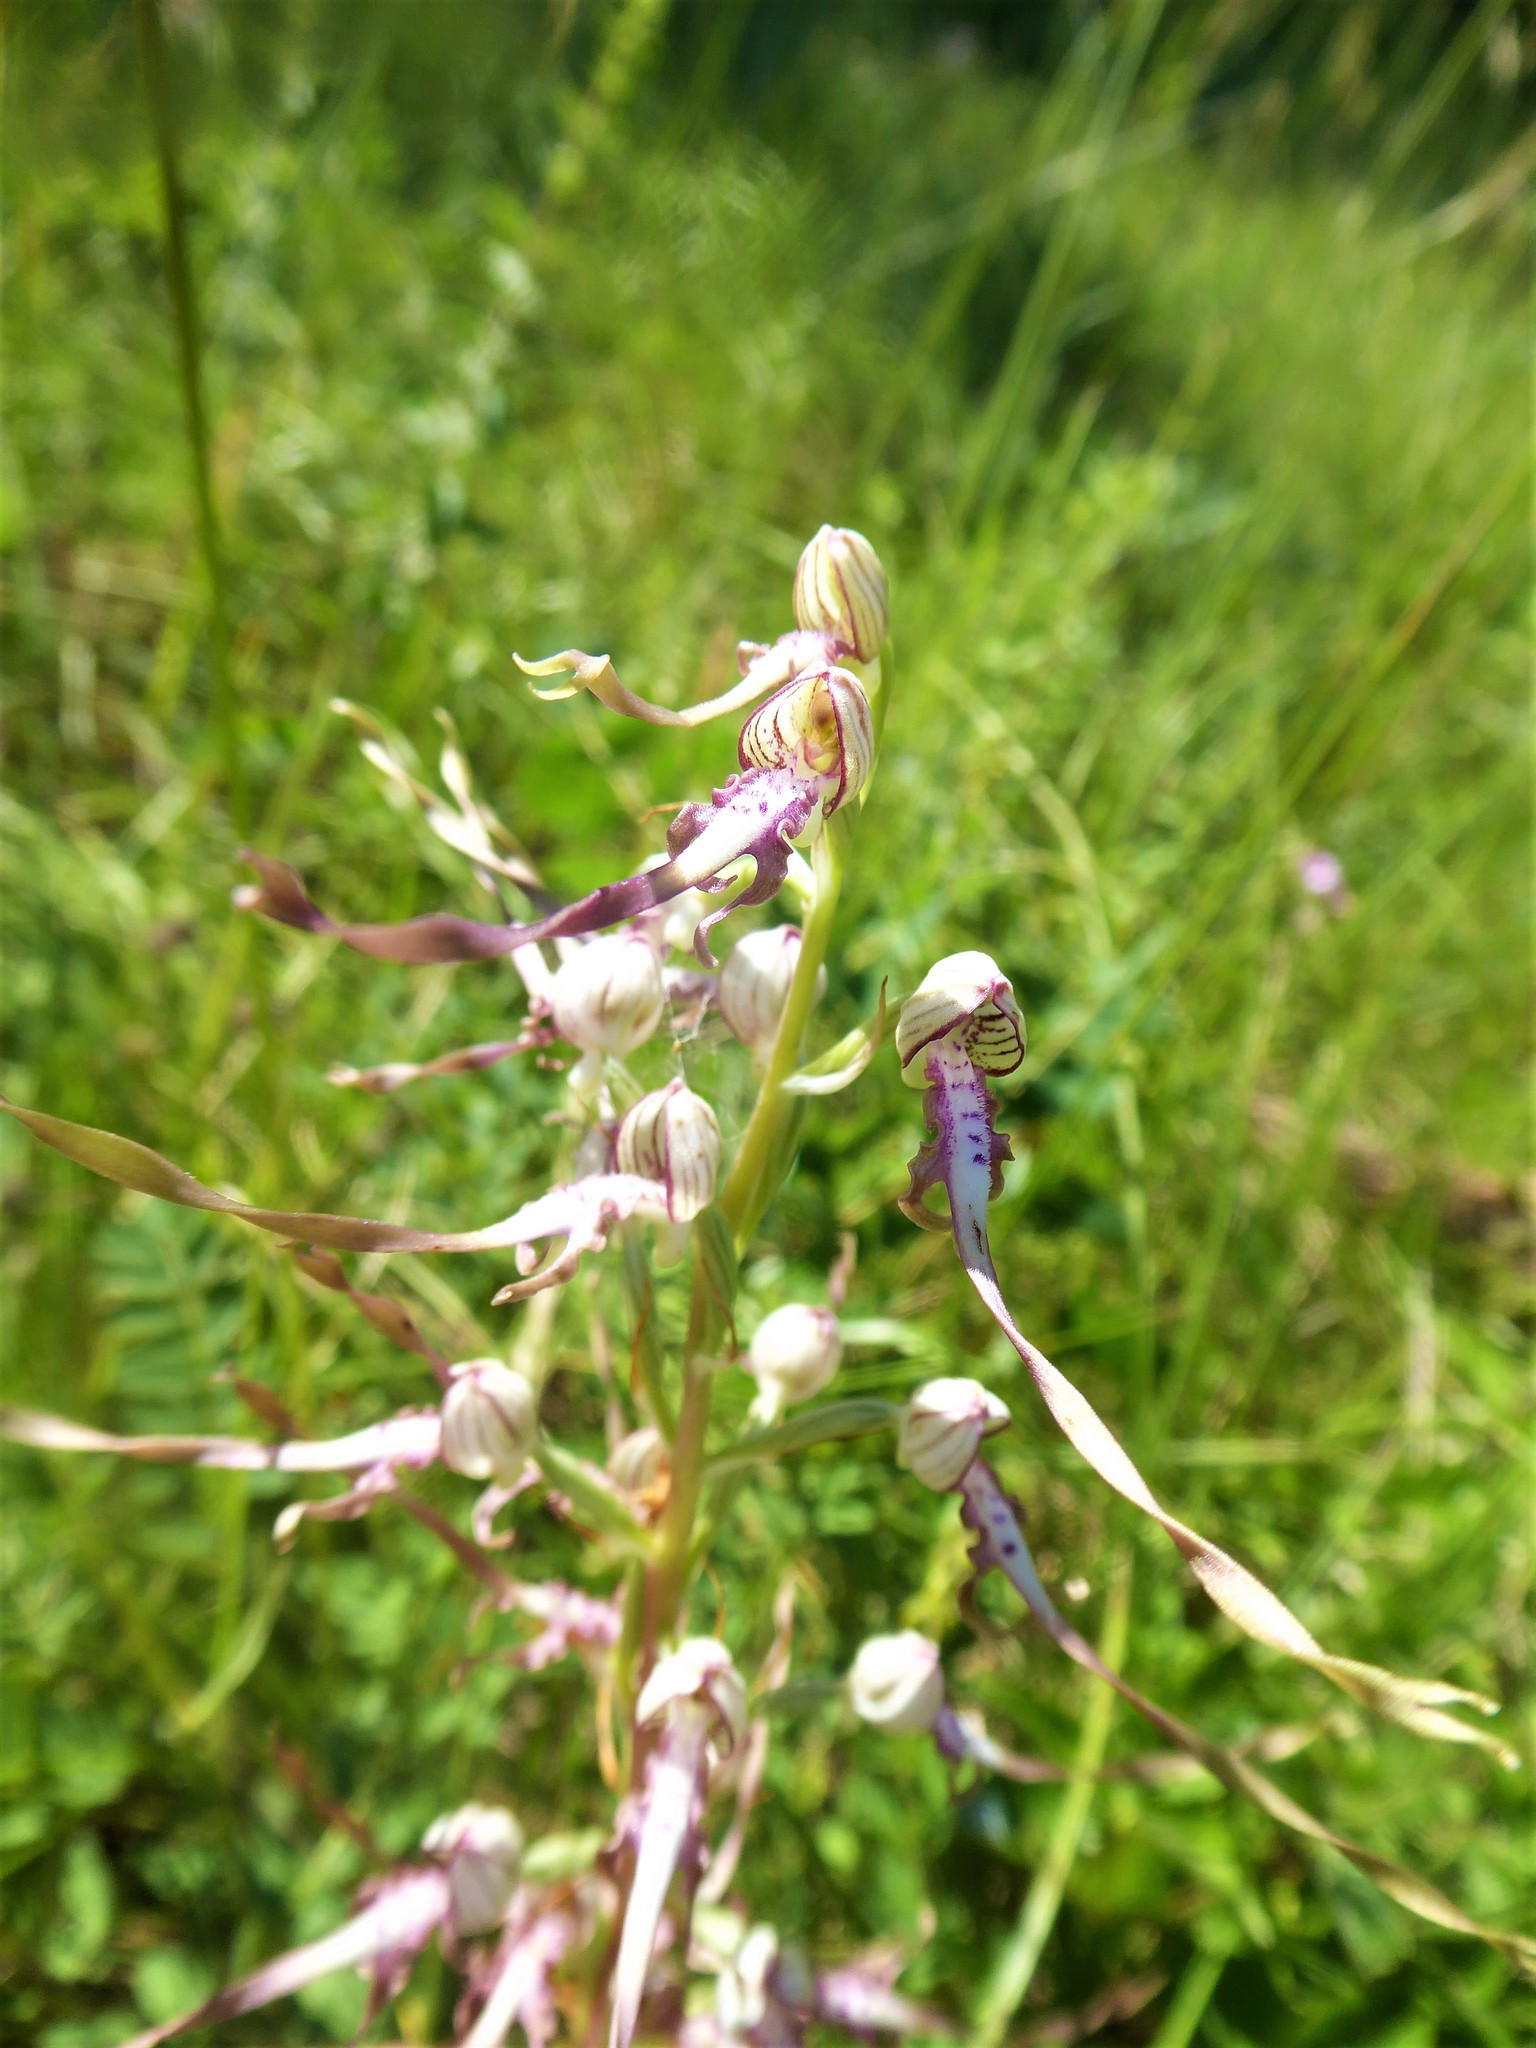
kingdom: Plantae
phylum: Tracheophyta
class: Liliopsida
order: Asparagales
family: Orchidaceae
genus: Himantoglossum
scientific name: Himantoglossum adriaticum
